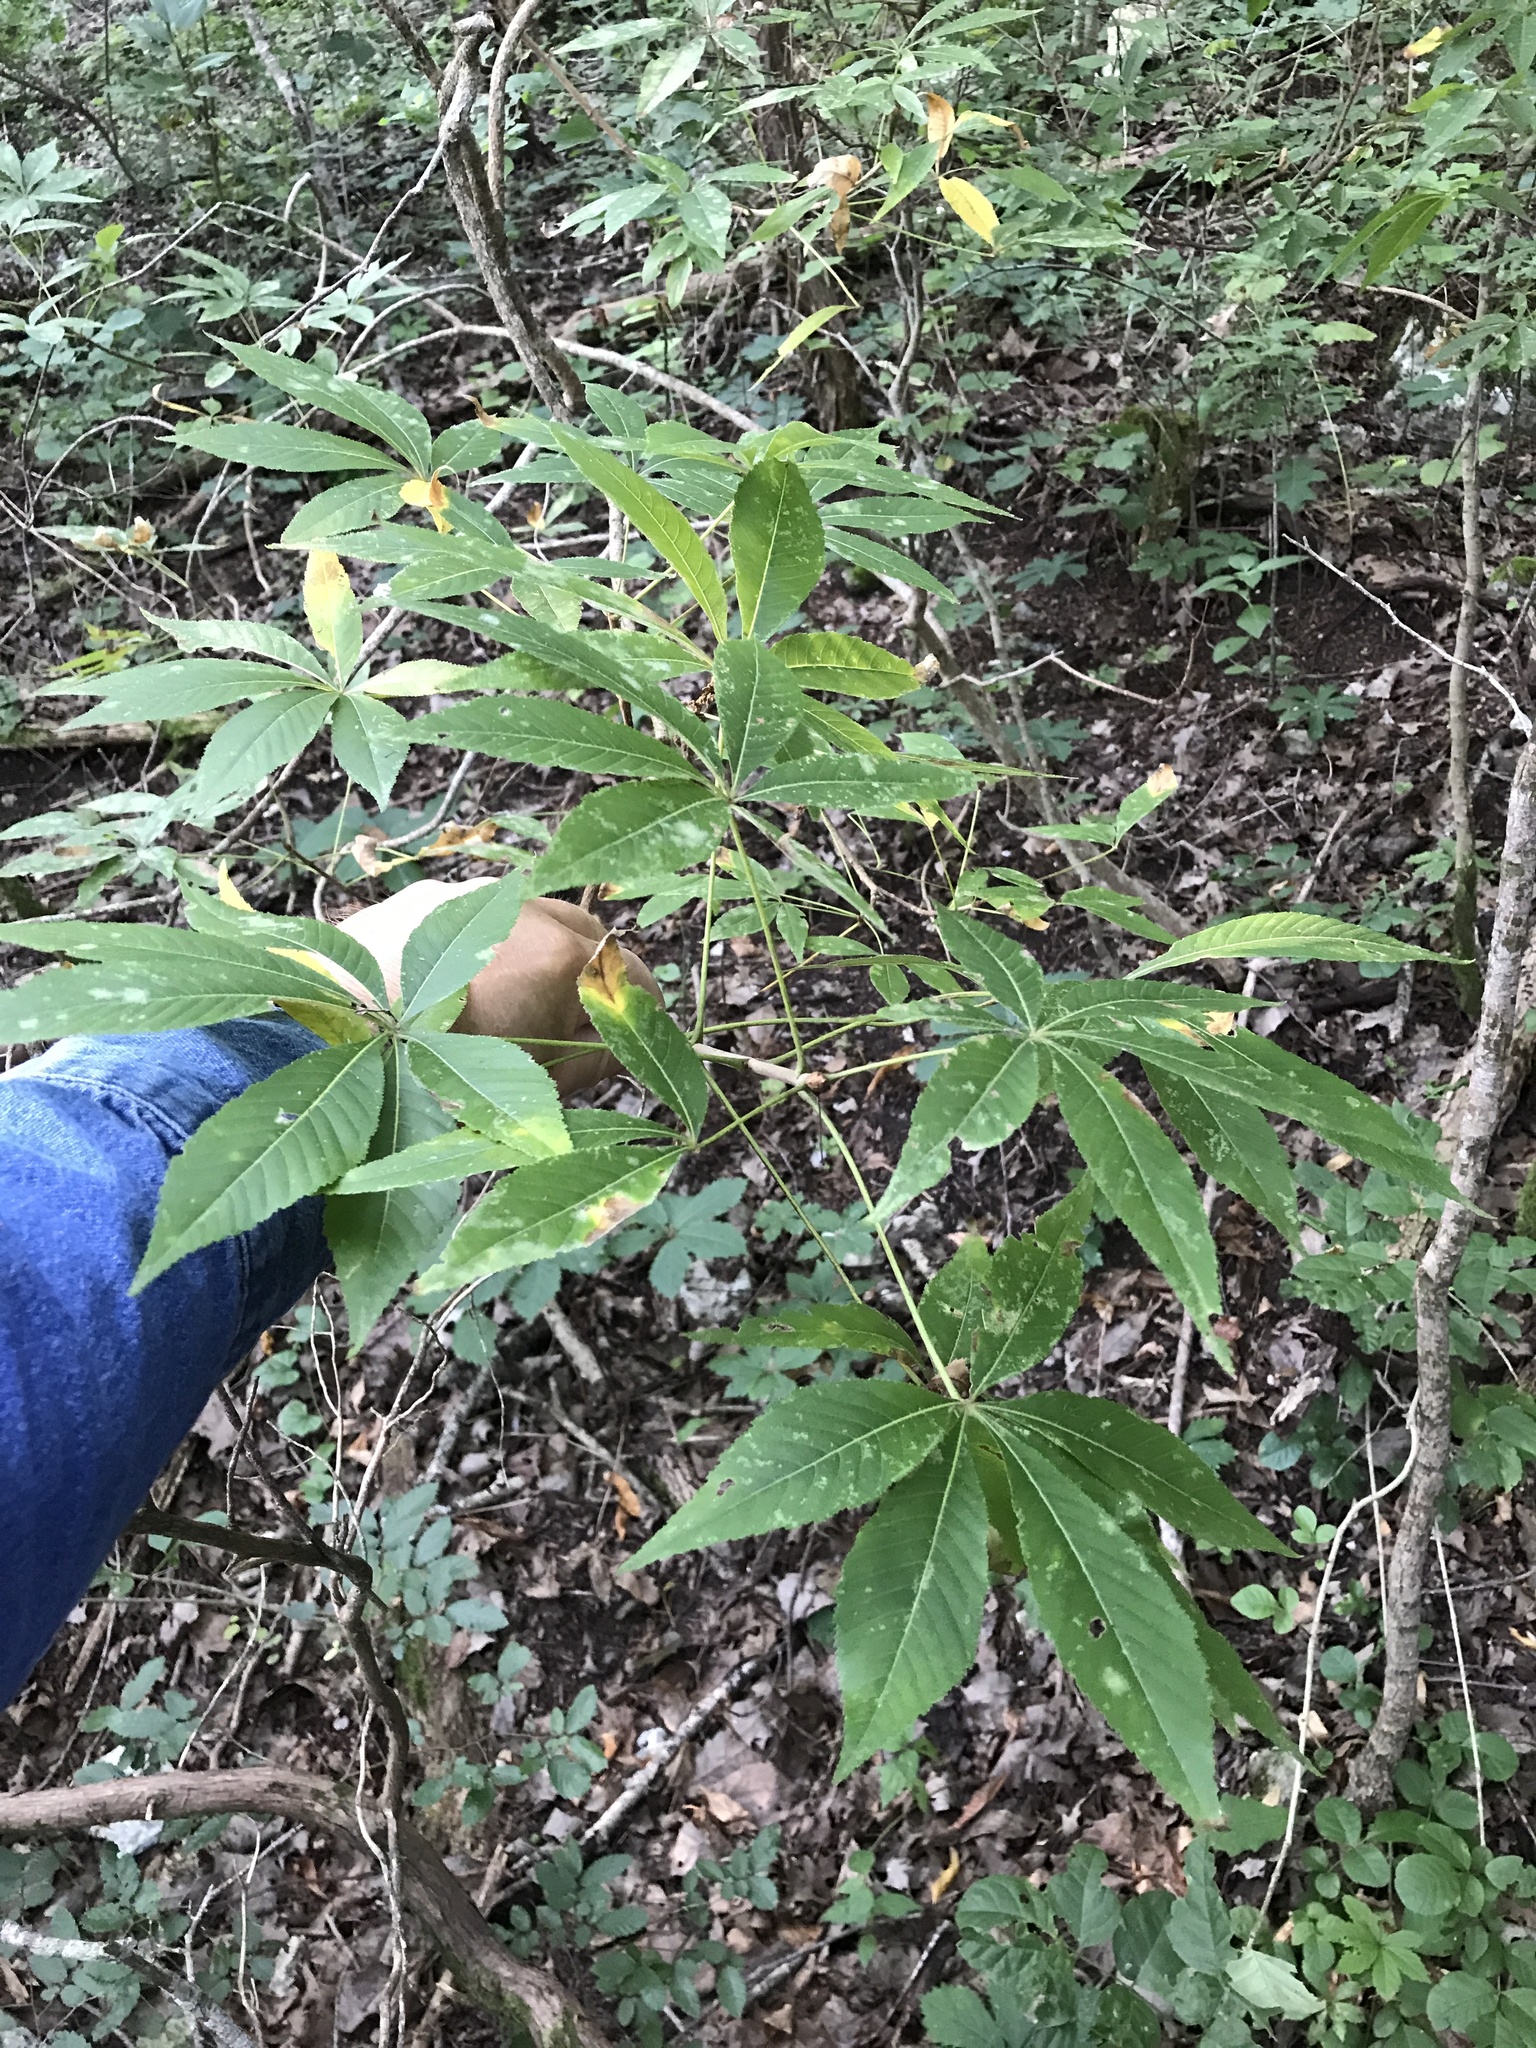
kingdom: Plantae
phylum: Tracheophyta
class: Magnoliopsida
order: Sapindales
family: Sapindaceae
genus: Aesculus
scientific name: Aesculus glabra
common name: Ohio buckeye
